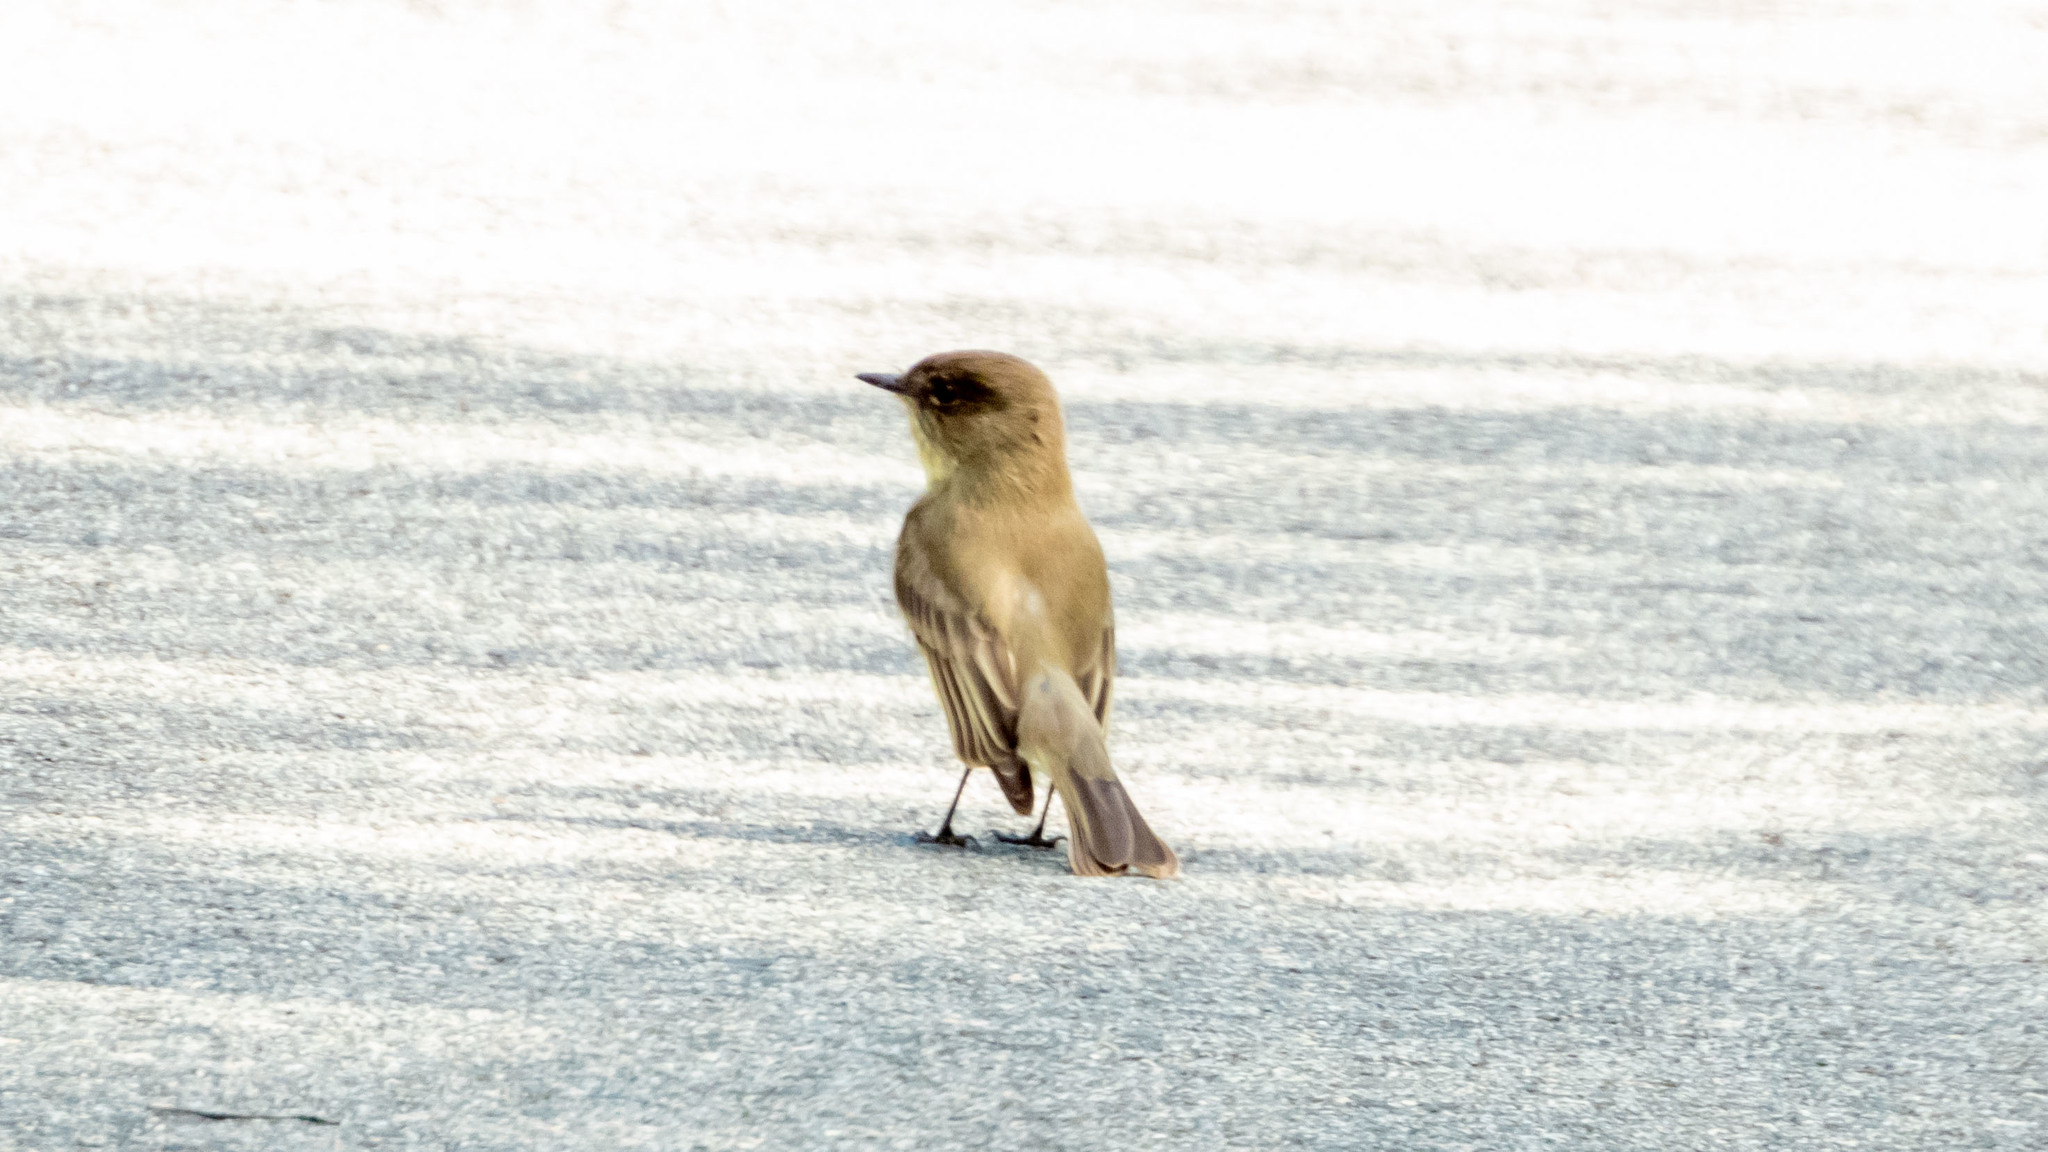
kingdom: Animalia
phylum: Chordata
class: Aves
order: Passeriformes
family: Tyrannidae
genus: Sayornis
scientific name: Sayornis phoebe
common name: Eastern phoebe
